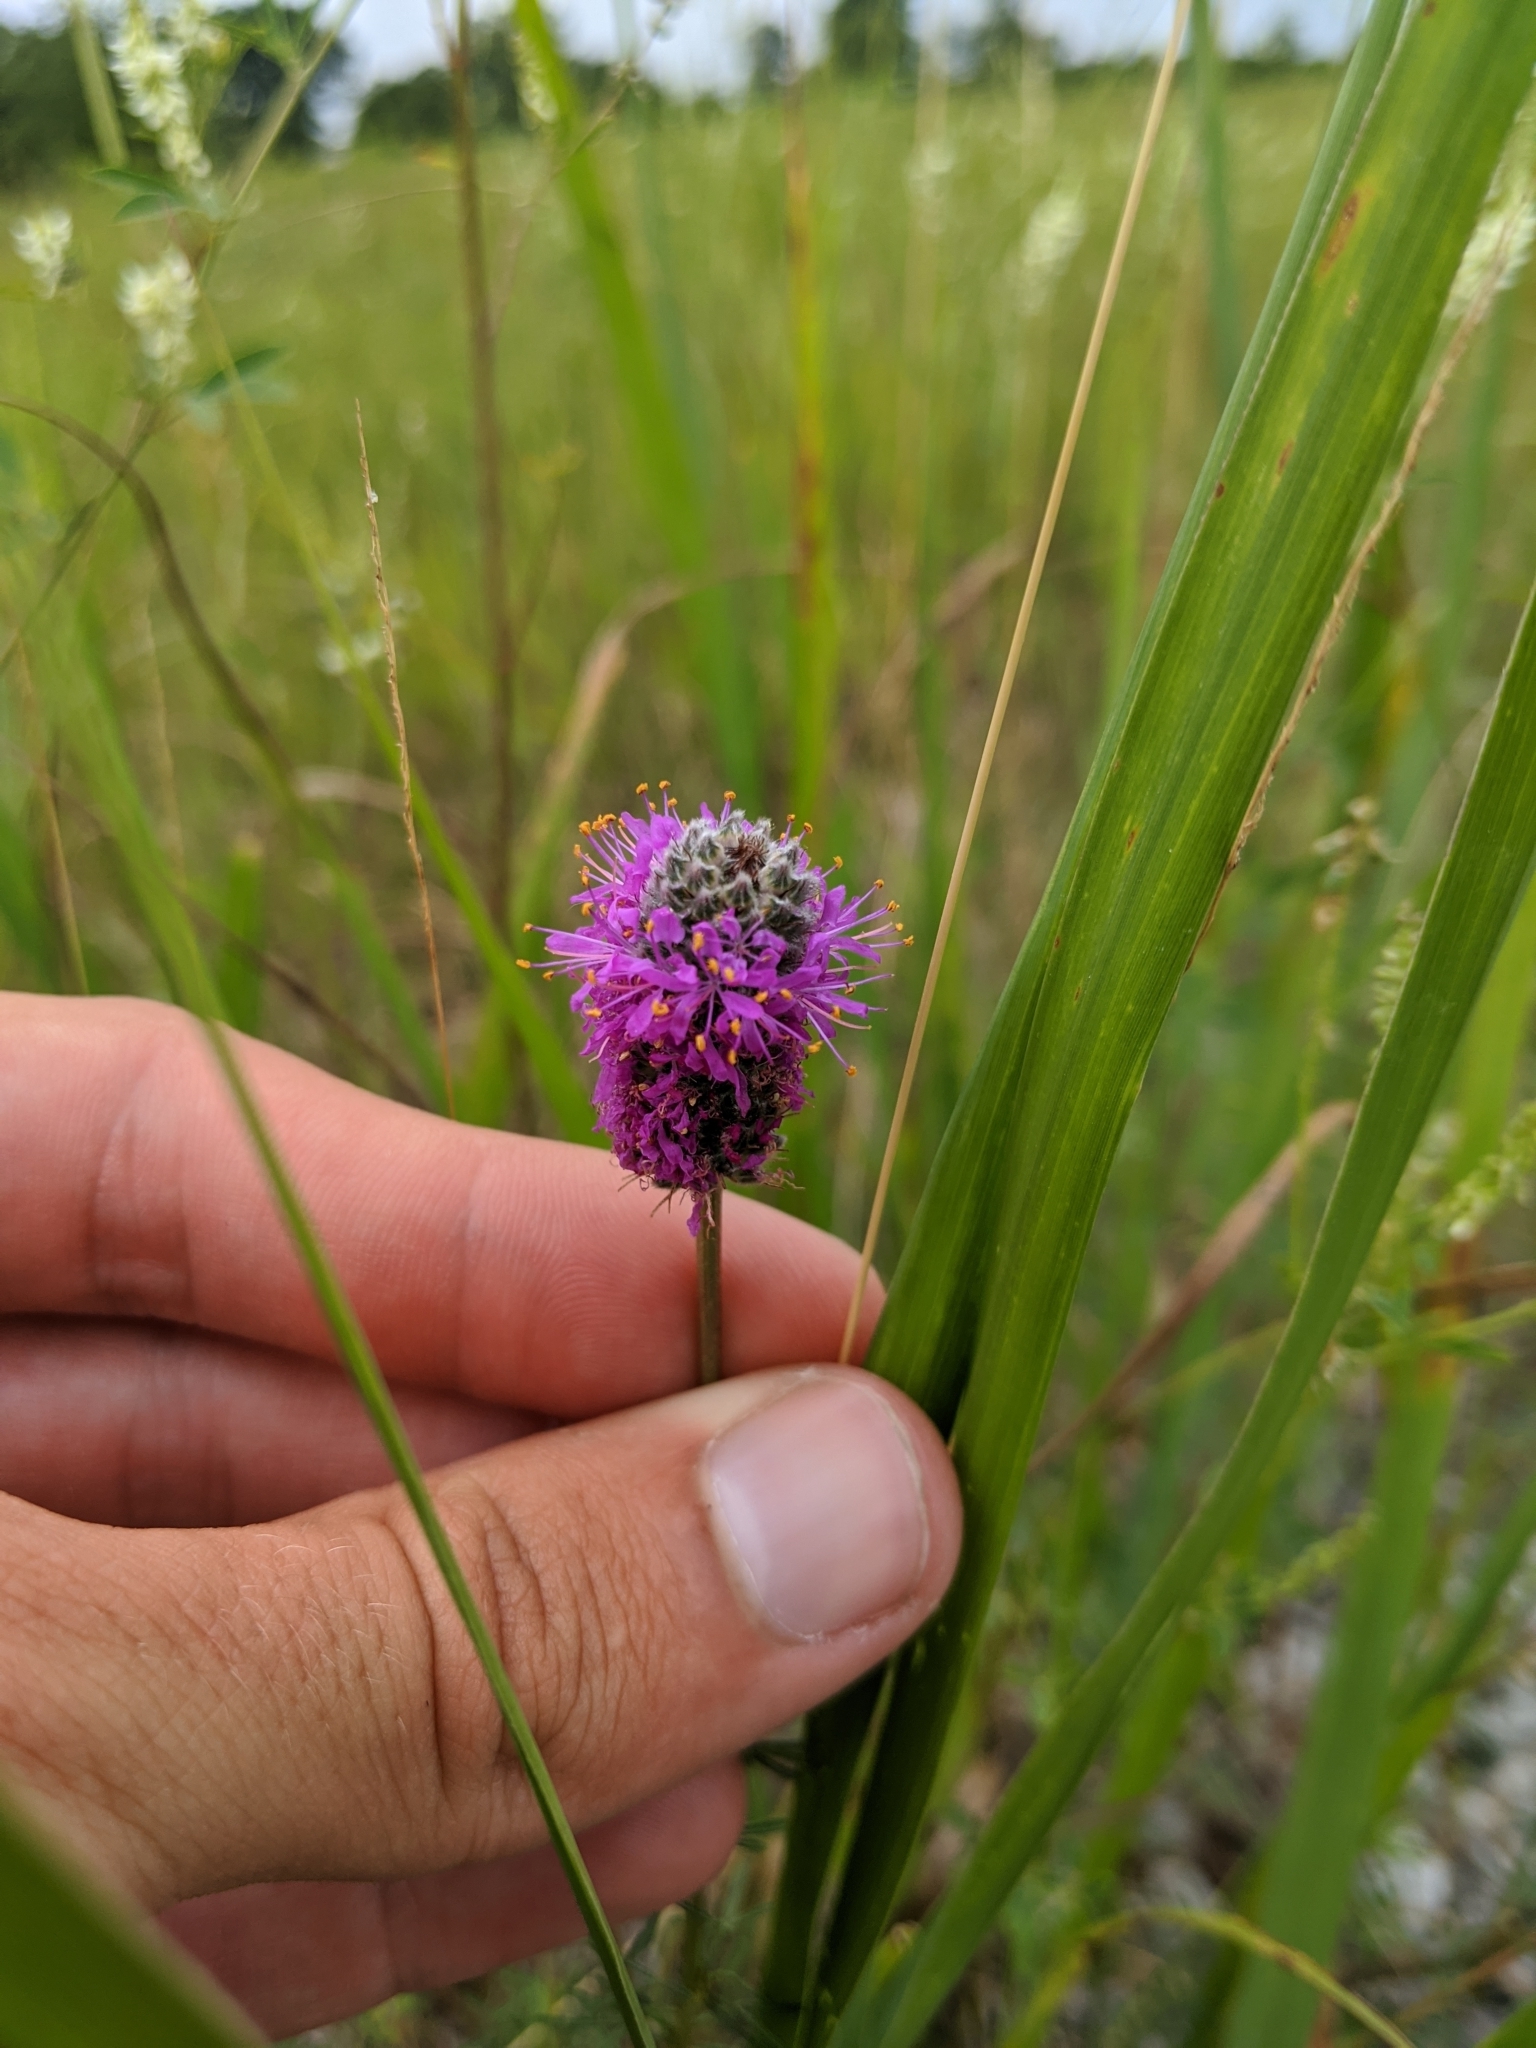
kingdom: Plantae
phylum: Tracheophyta
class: Magnoliopsida
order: Fabales
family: Fabaceae
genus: Dalea
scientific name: Dalea purpurea
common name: Purple prairie-clover
